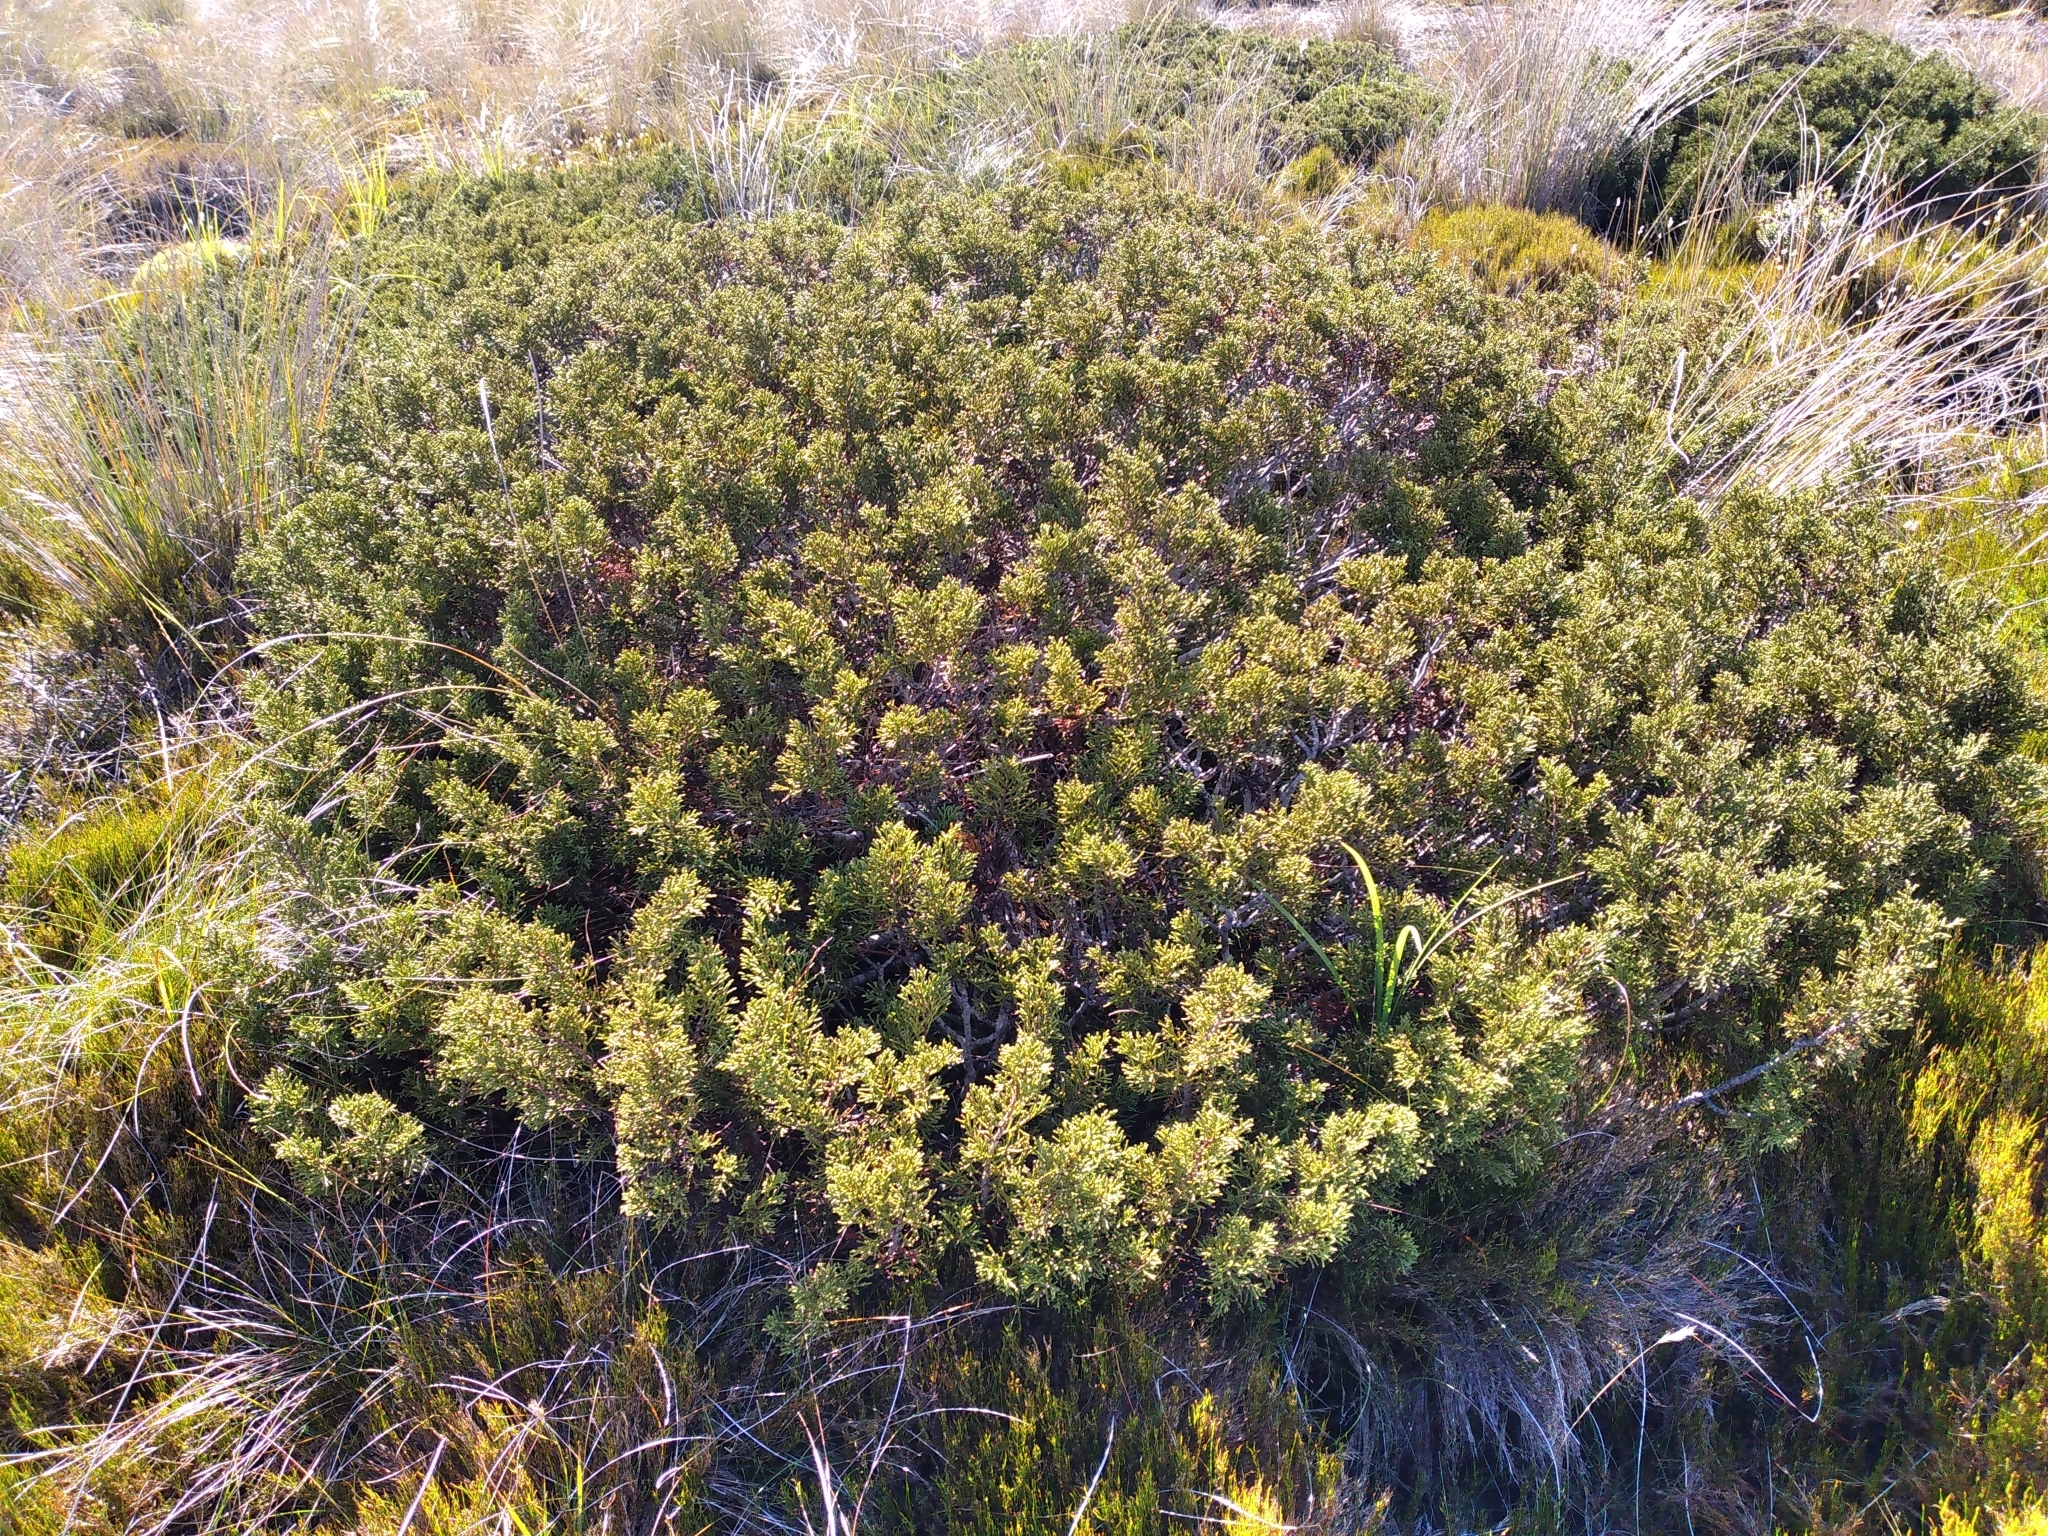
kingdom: Plantae
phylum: Tracheophyta
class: Pinopsida
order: Pinales
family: Podocarpaceae
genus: Halocarpus
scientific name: Halocarpus bidwillii
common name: Bog pine
